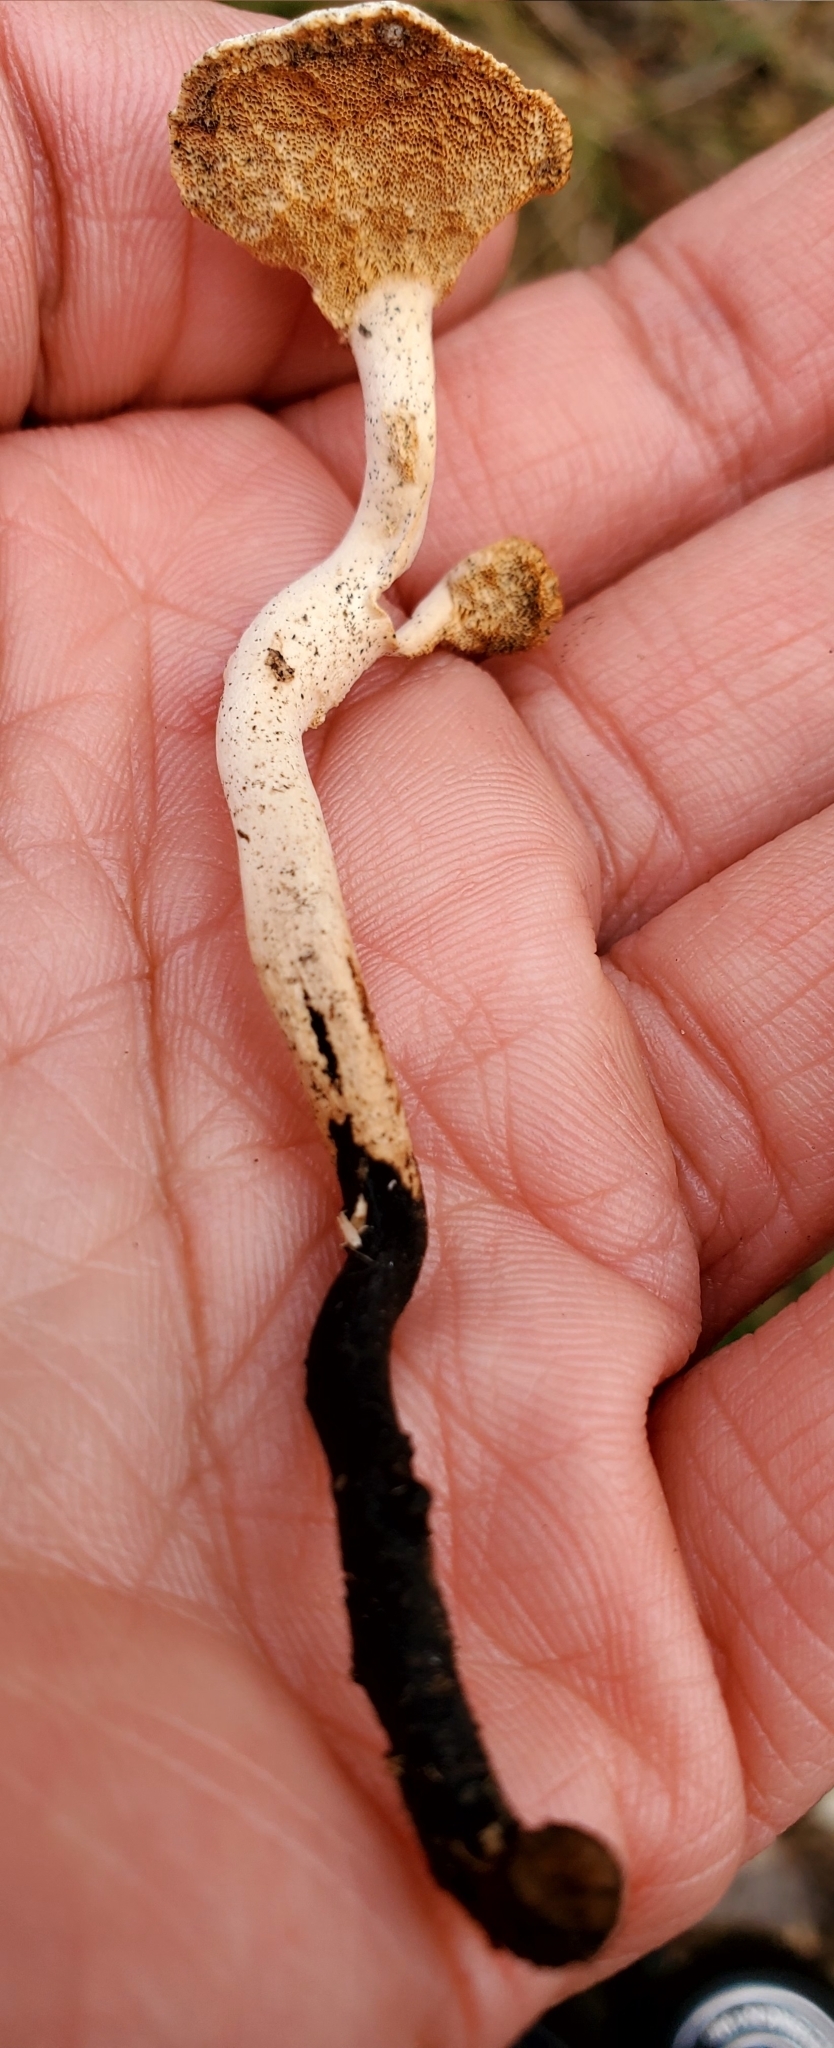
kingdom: Fungi
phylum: Basidiomycota
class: Agaricomycetes
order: Polyporales
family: Polyporaceae
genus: Cerioporus
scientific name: Cerioporus varius
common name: Elegant polypore
